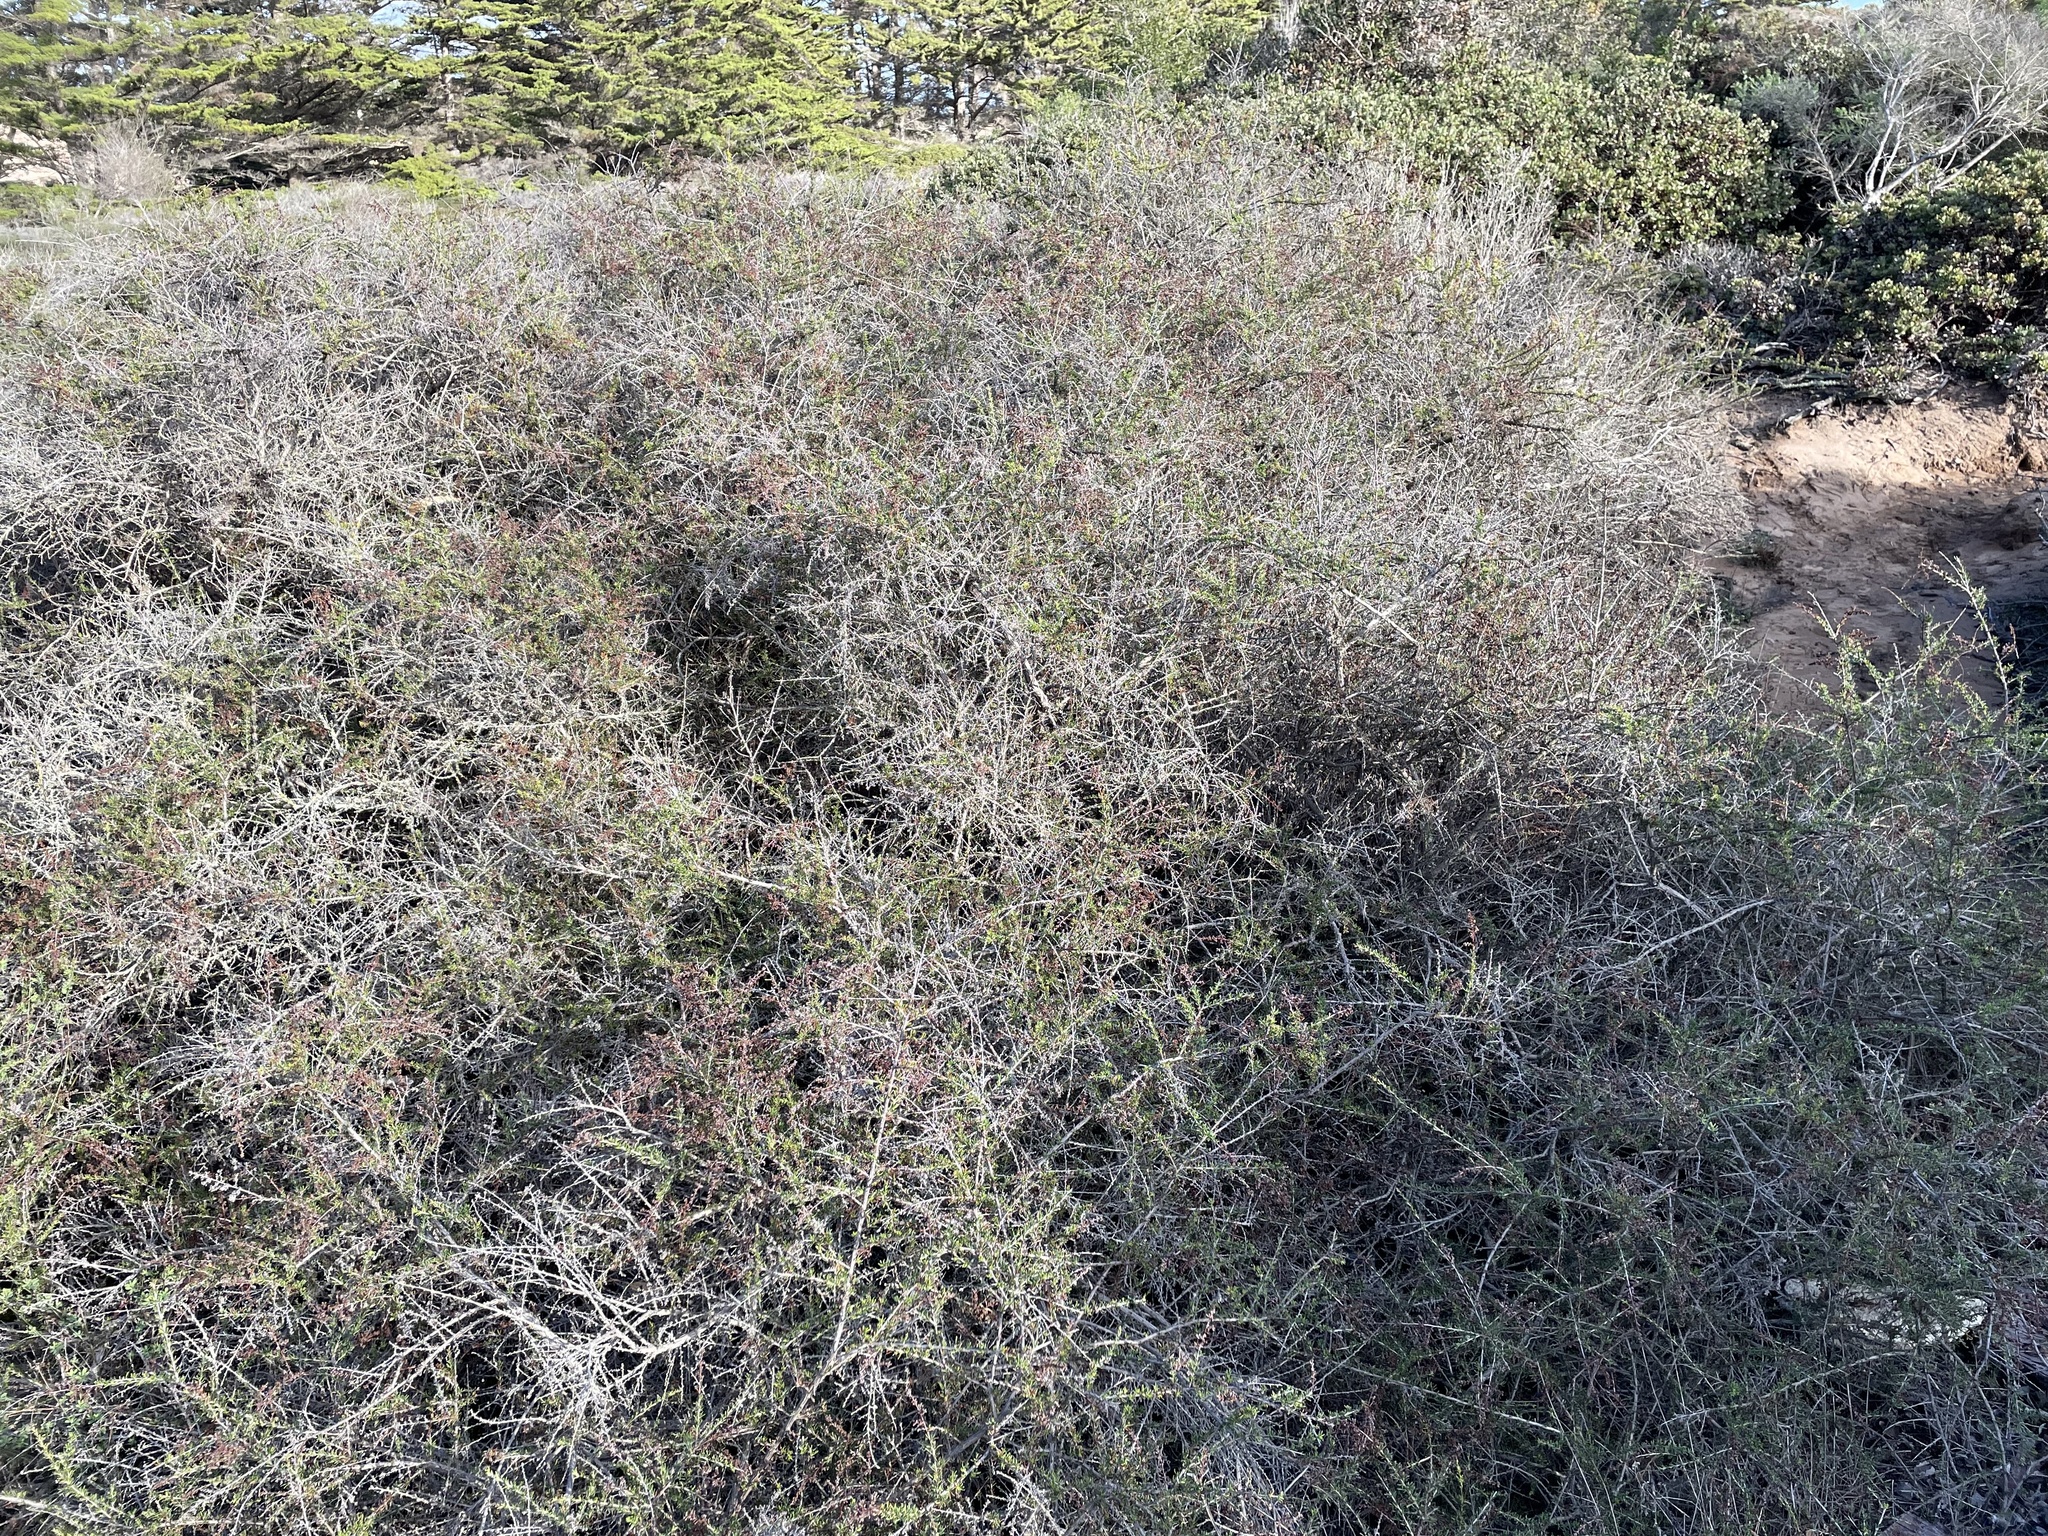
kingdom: Plantae
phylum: Tracheophyta
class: Magnoliopsida
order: Rosales
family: Rosaceae
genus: Adenostoma
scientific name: Adenostoma fasciculatum
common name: Chamise
